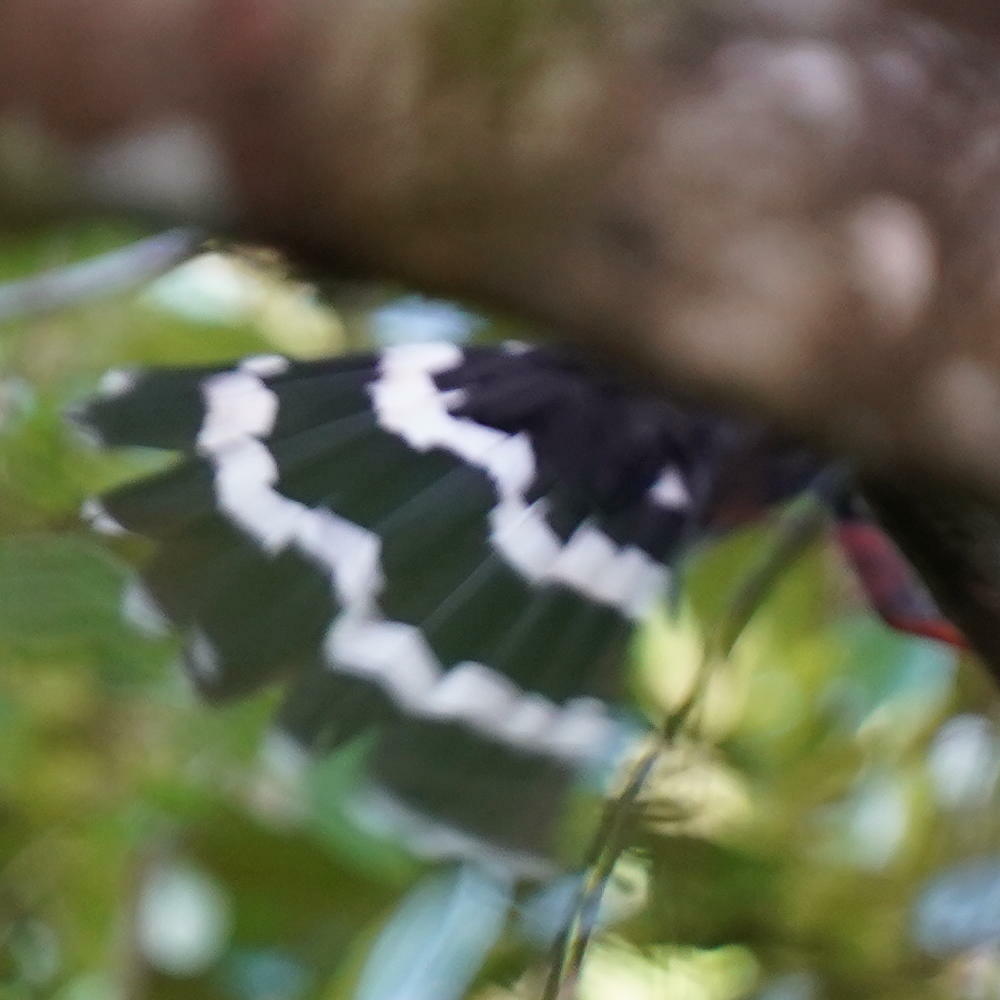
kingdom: Animalia
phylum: Chordata
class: Aves
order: Accipitriformes
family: Accipitridae
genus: Geranospiza
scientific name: Geranospiza caerulescens
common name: Crane hawk
